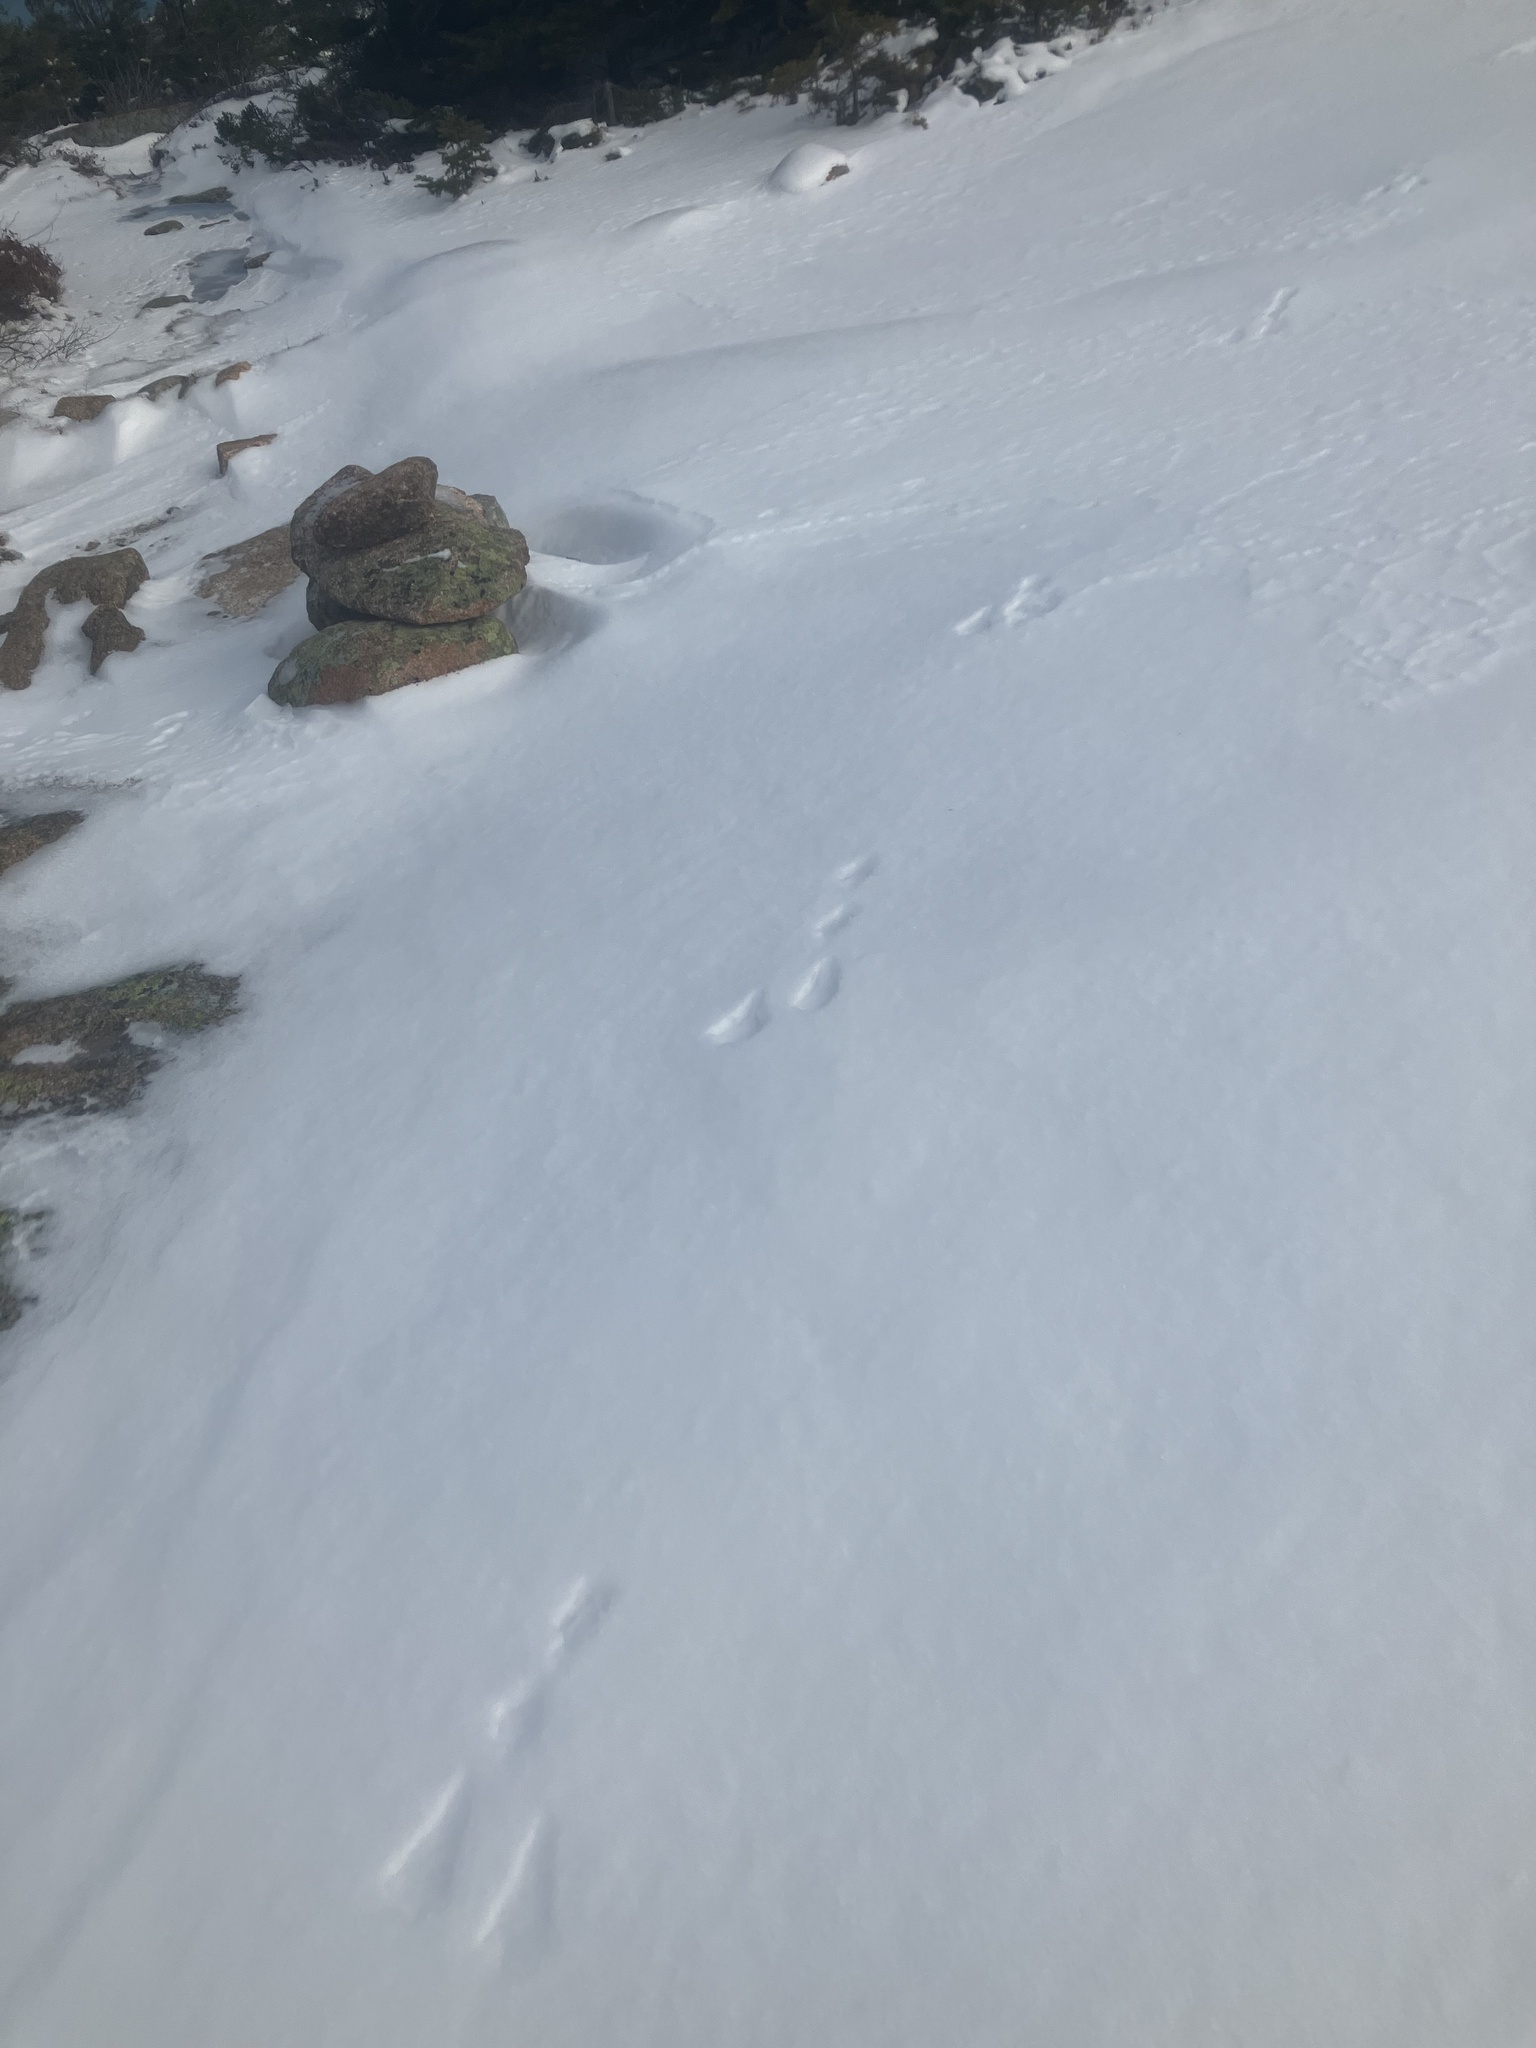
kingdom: Animalia
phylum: Chordata
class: Mammalia
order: Lagomorpha
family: Leporidae
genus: Lepus
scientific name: Lepus americanus
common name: Snowshoe hare
